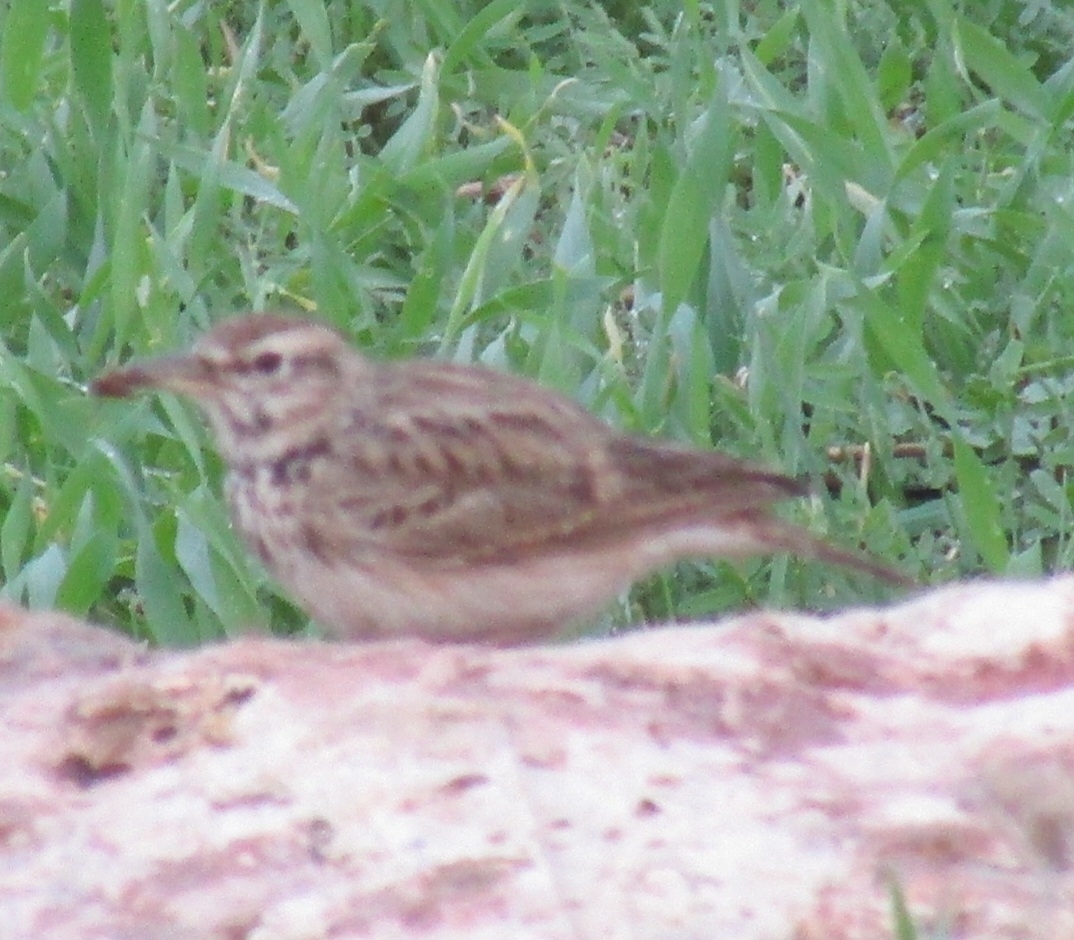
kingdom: Animalia
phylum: Chordata
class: Aves
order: Passeriformes
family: Alaudidae
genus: Galerida
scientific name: Galerida cristata
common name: Crested lark
